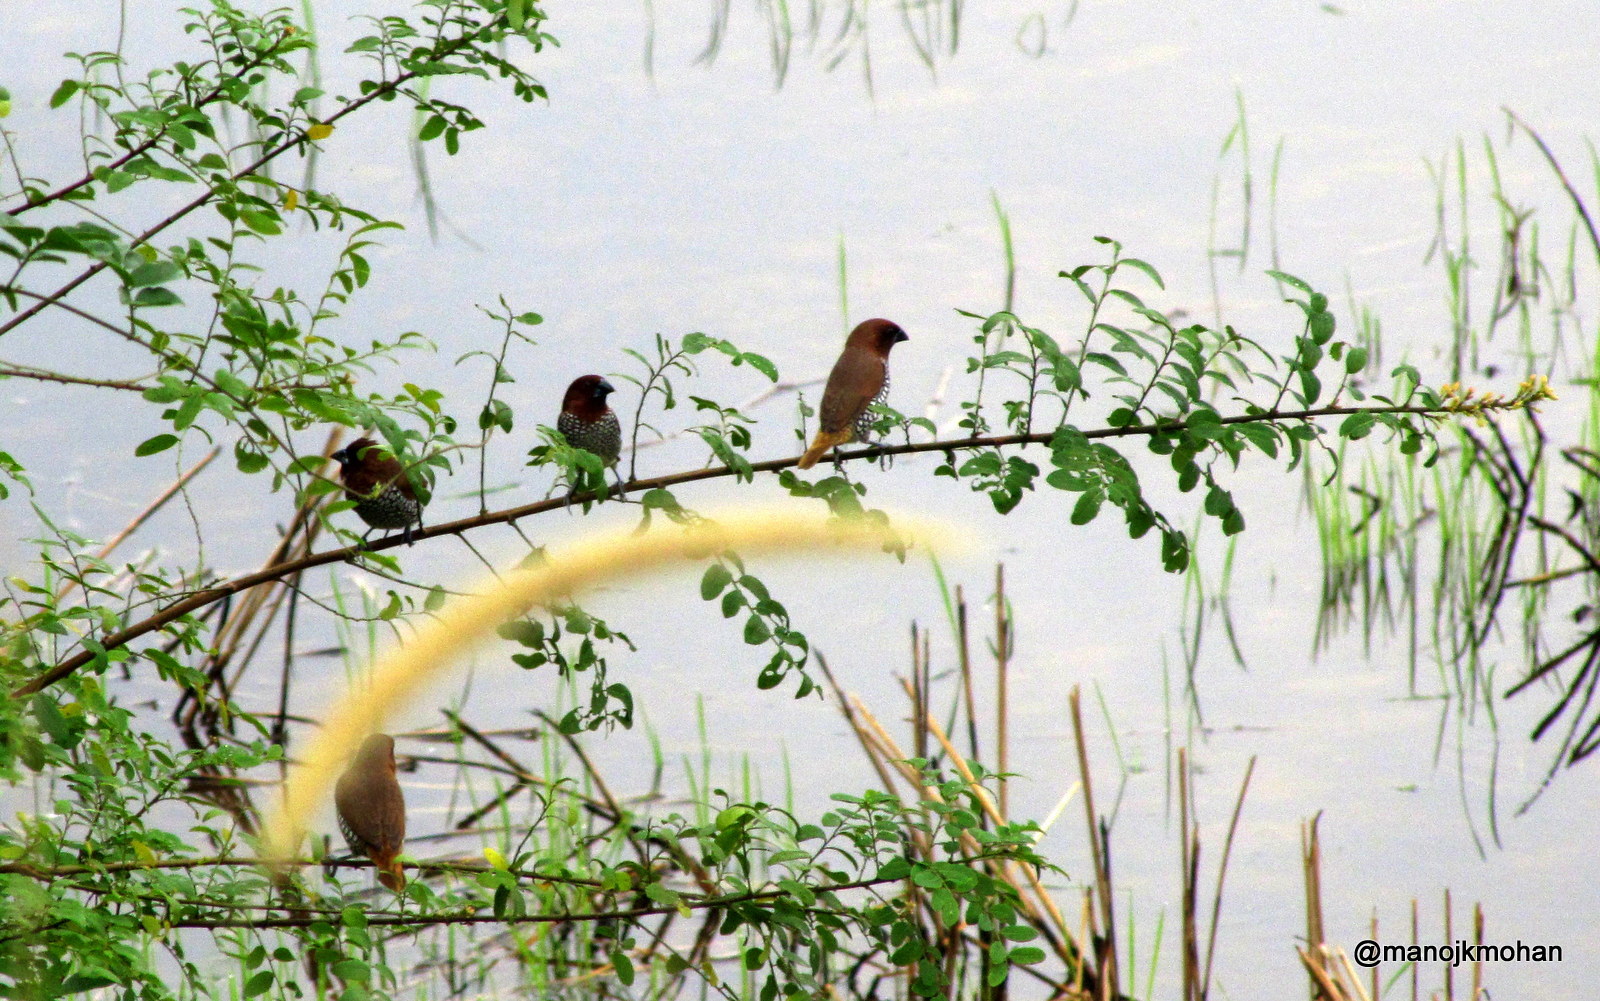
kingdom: Animalia
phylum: Chordata
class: Aves
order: Passeriformes
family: Estrildidae
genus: Lonchura
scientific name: Lonchura punctulata
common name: Scaly-breasted munia
